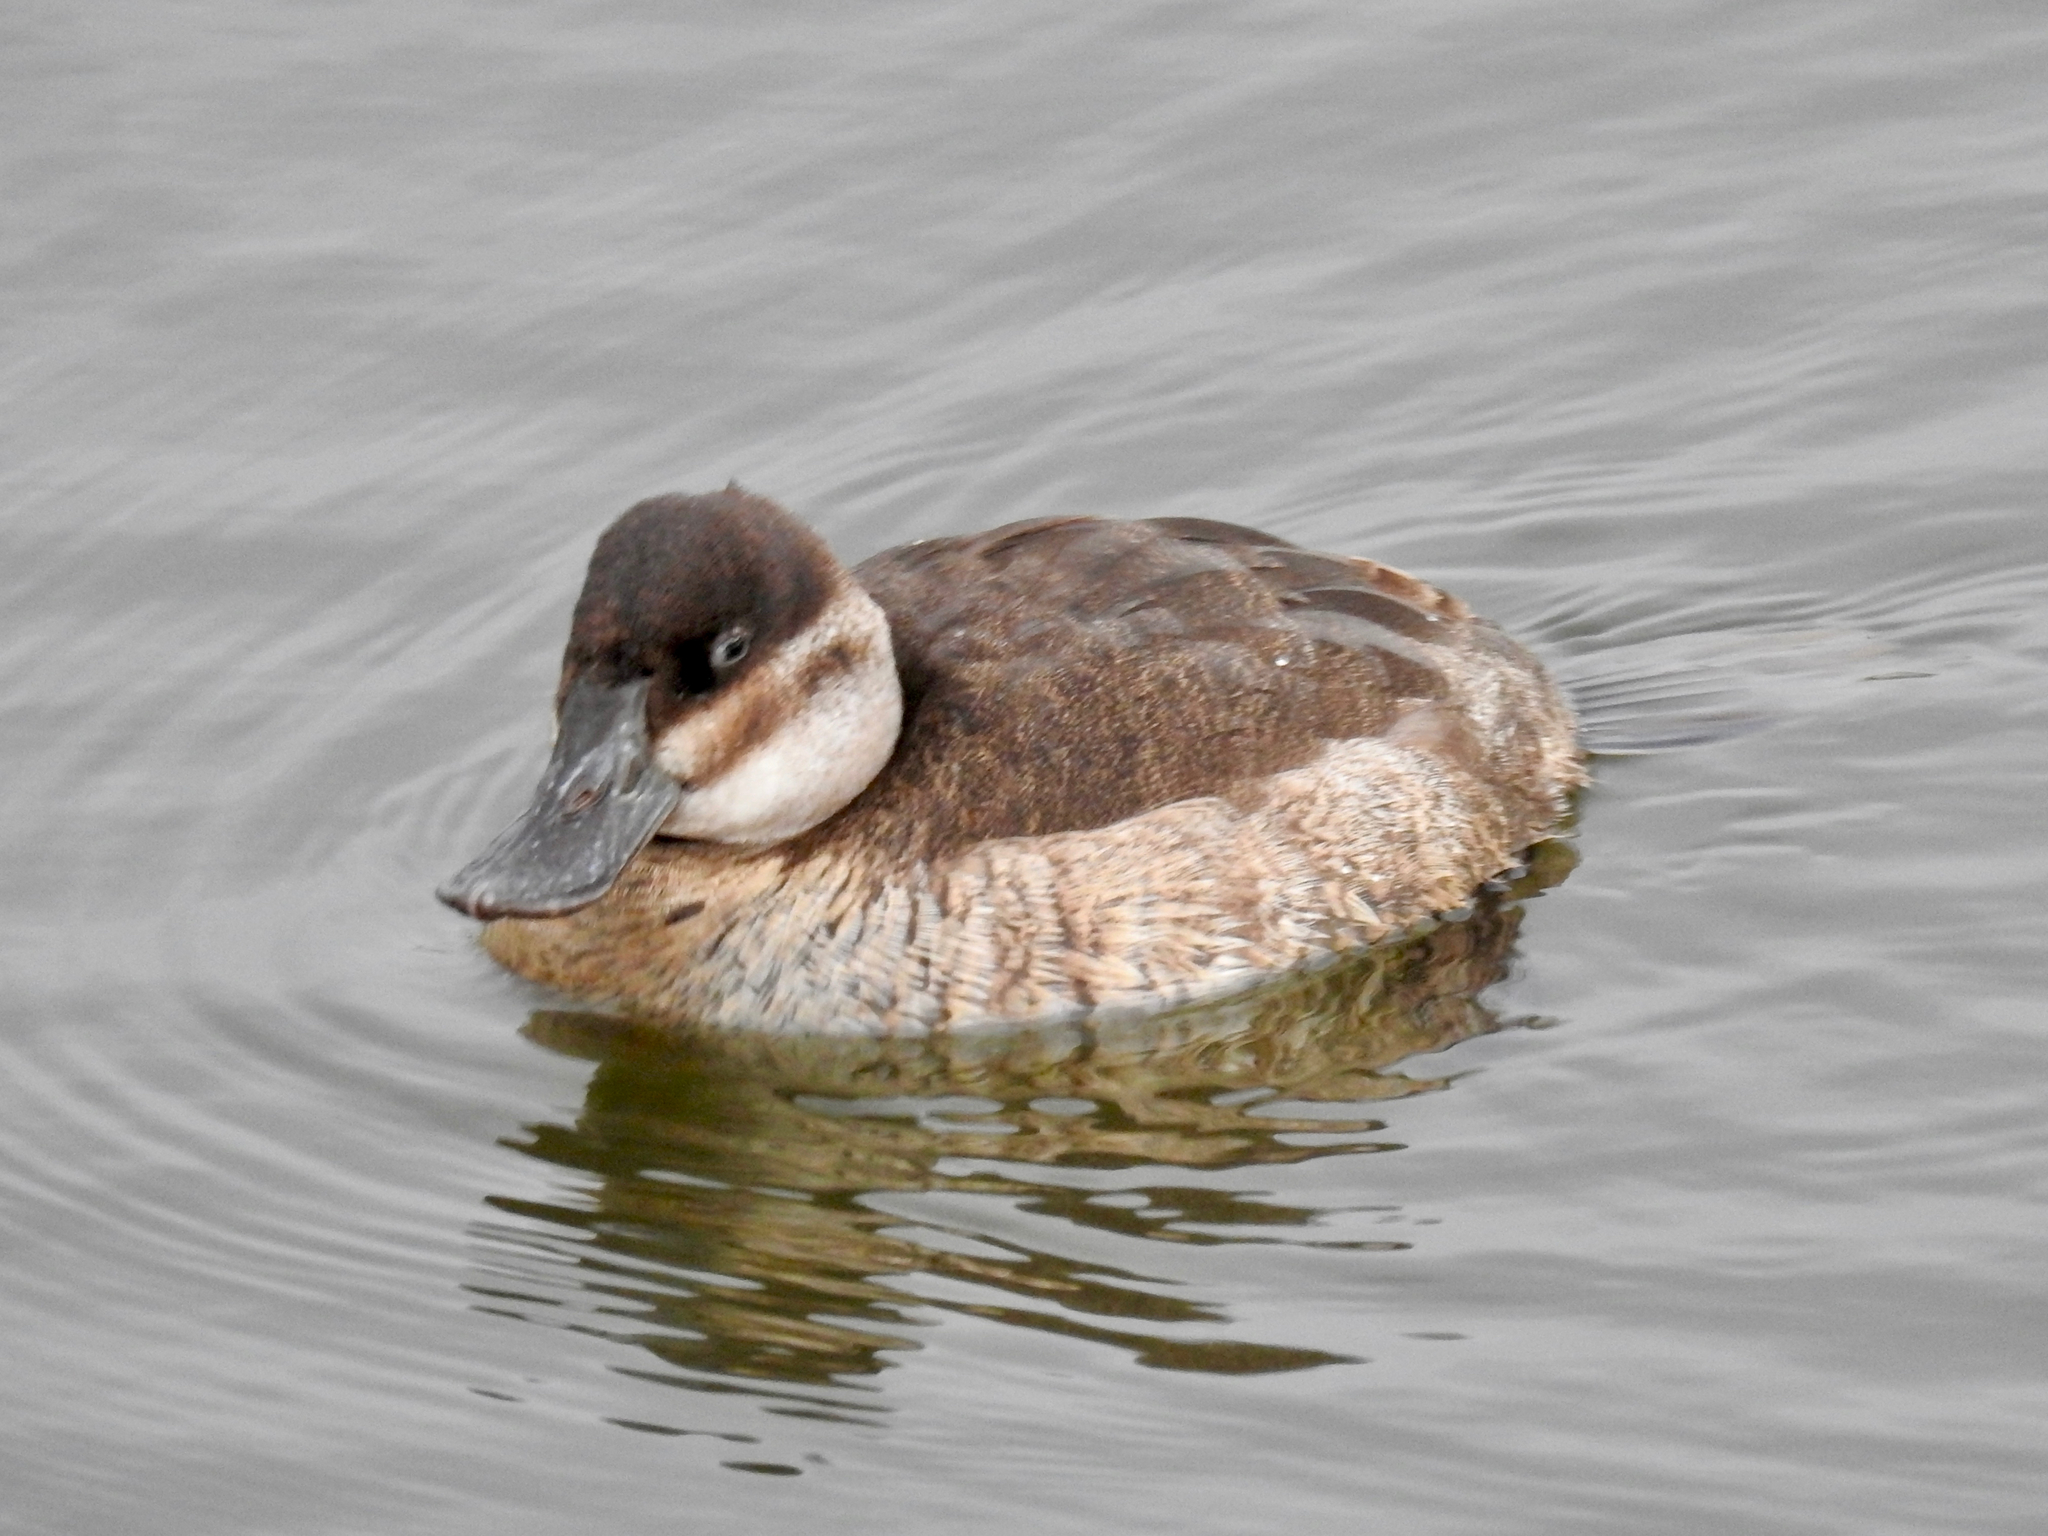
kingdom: Animalia
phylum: Chordata
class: Aves
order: Anseriformes
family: Anatidae
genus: Oxyura
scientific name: Oxyura jamaicensis
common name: Ruddy duck
